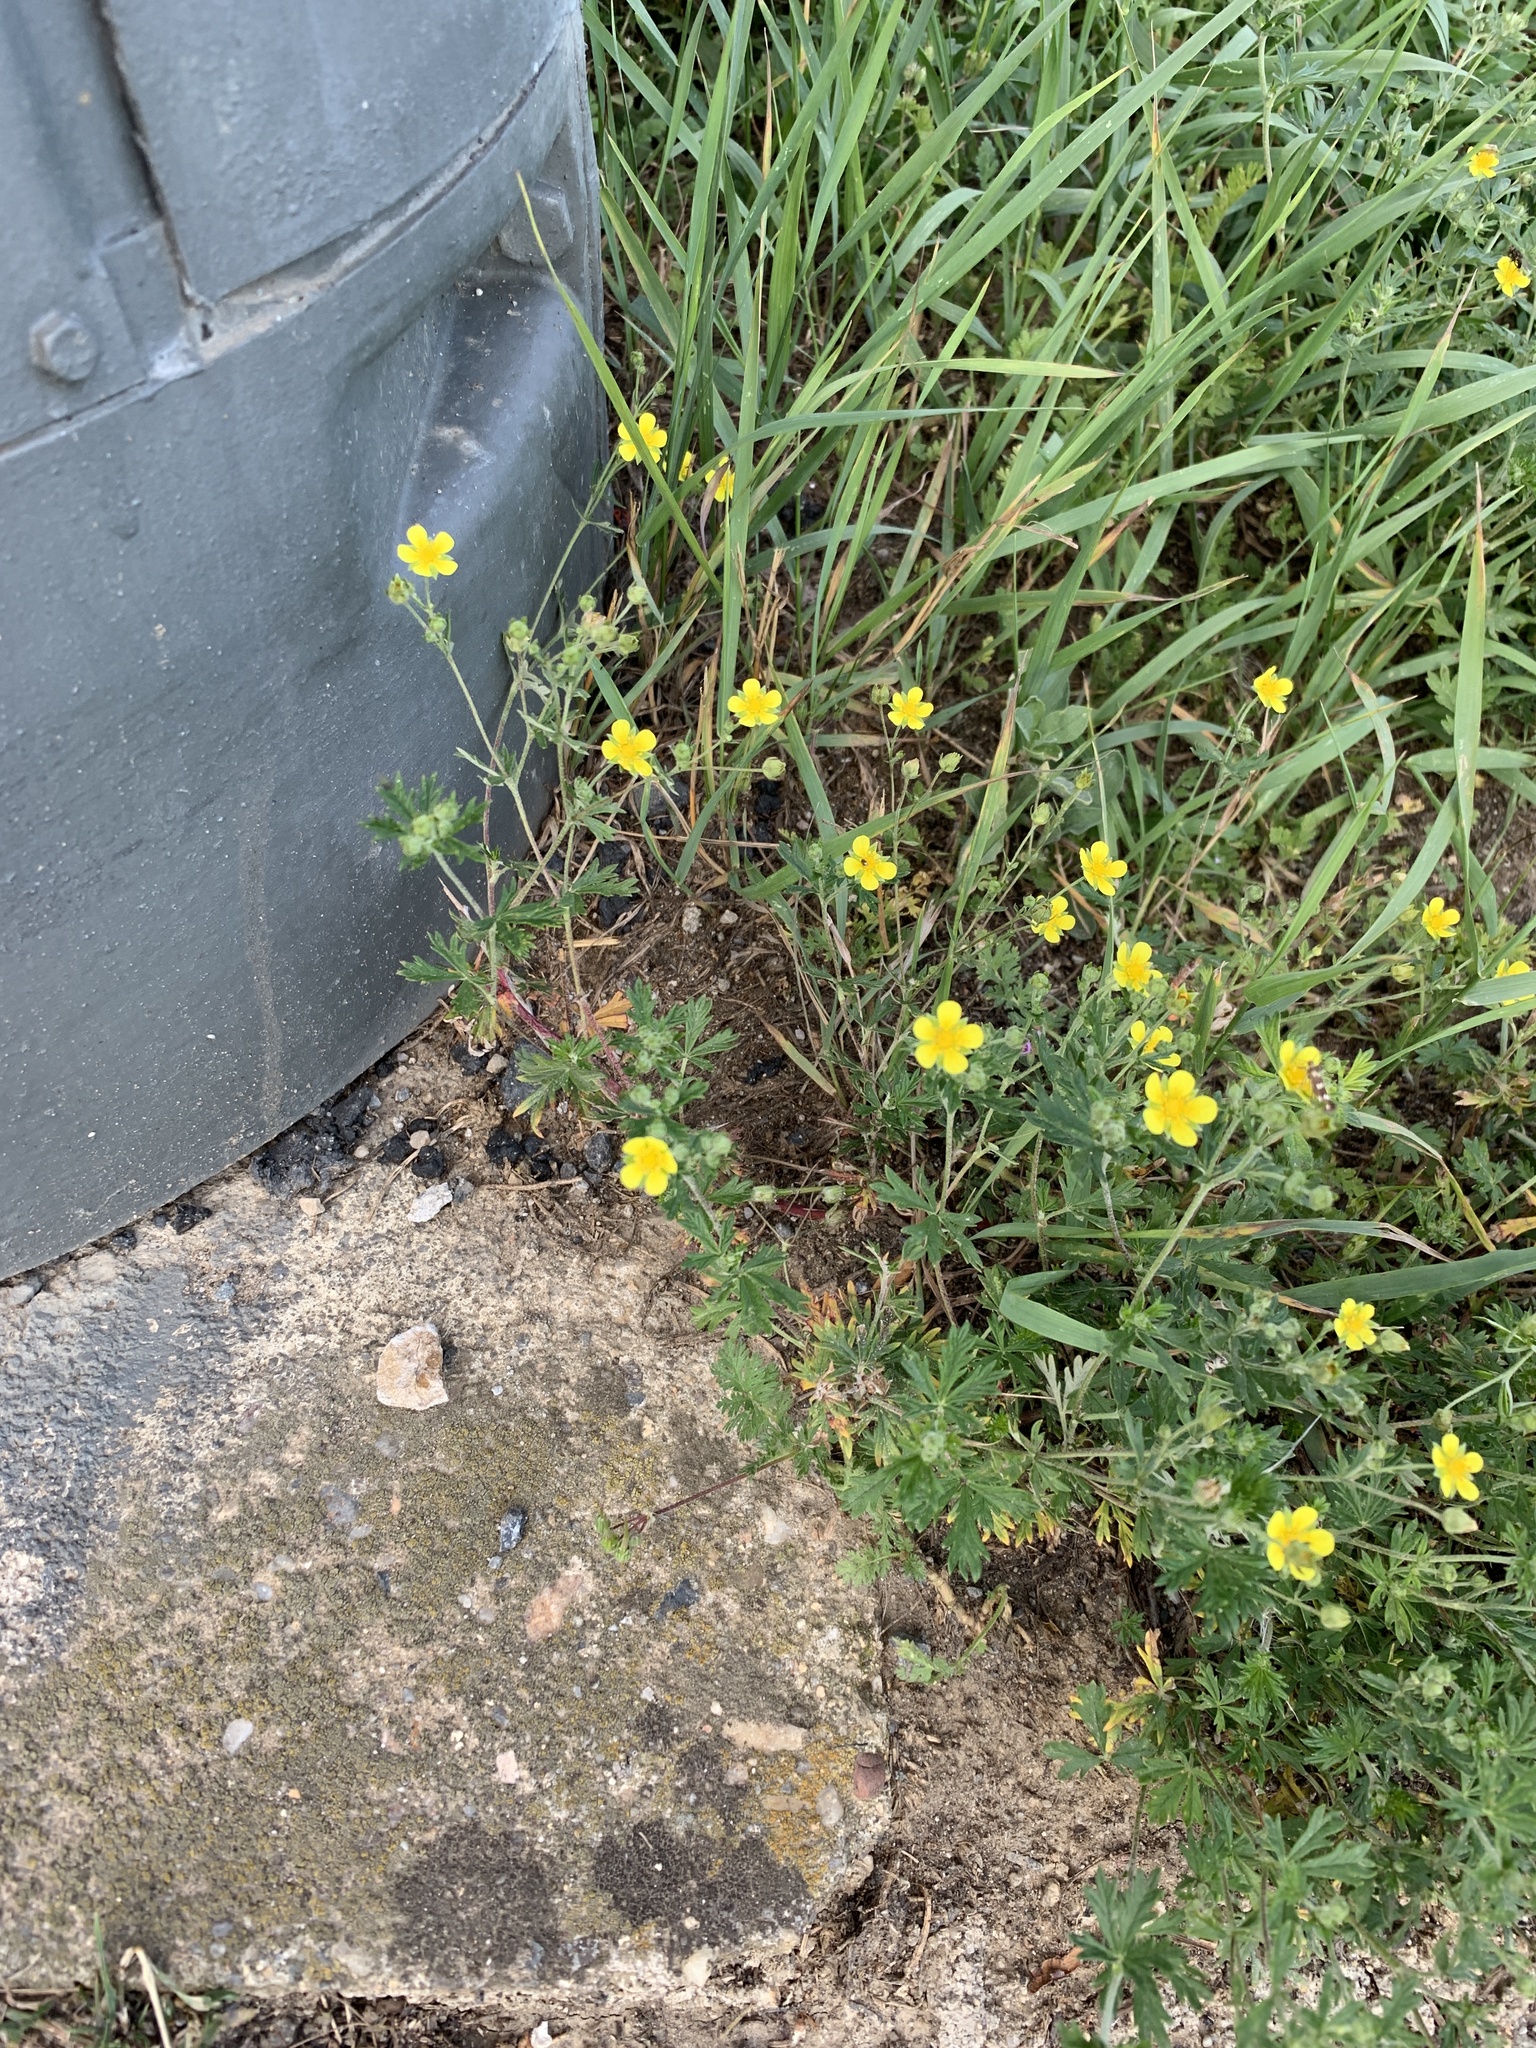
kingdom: Plantae
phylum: Tracheophyta
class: Magnoliopsida
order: Rosales
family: Rosaceae
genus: Potentilla
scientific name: Potentilla argentea
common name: Hoary cinquefoil
